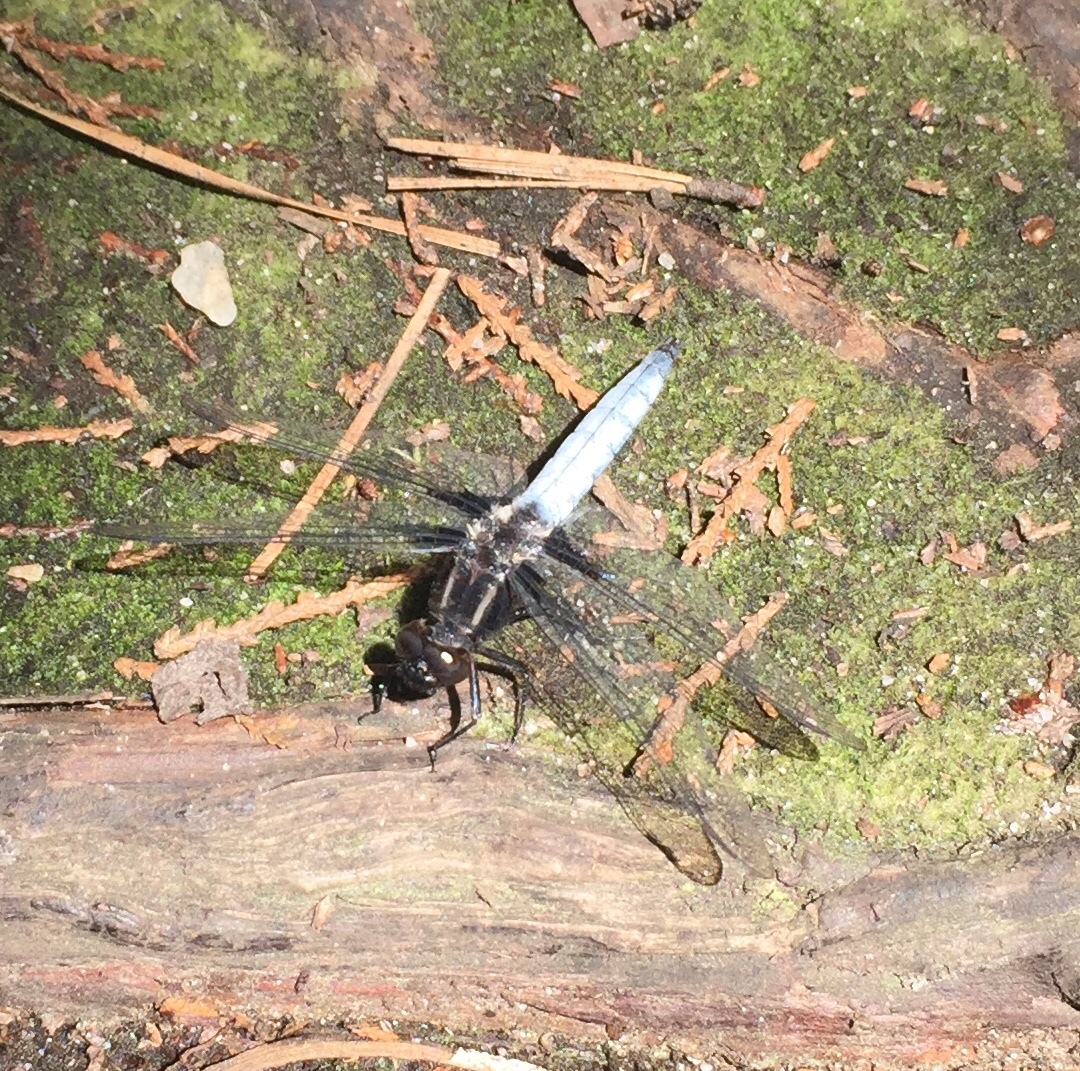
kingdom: Animalia
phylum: Arthropoda
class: Insecta
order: Odonata
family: Libellulidae
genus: Ladona
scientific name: Ladona exusta
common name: Libellule embrasée
